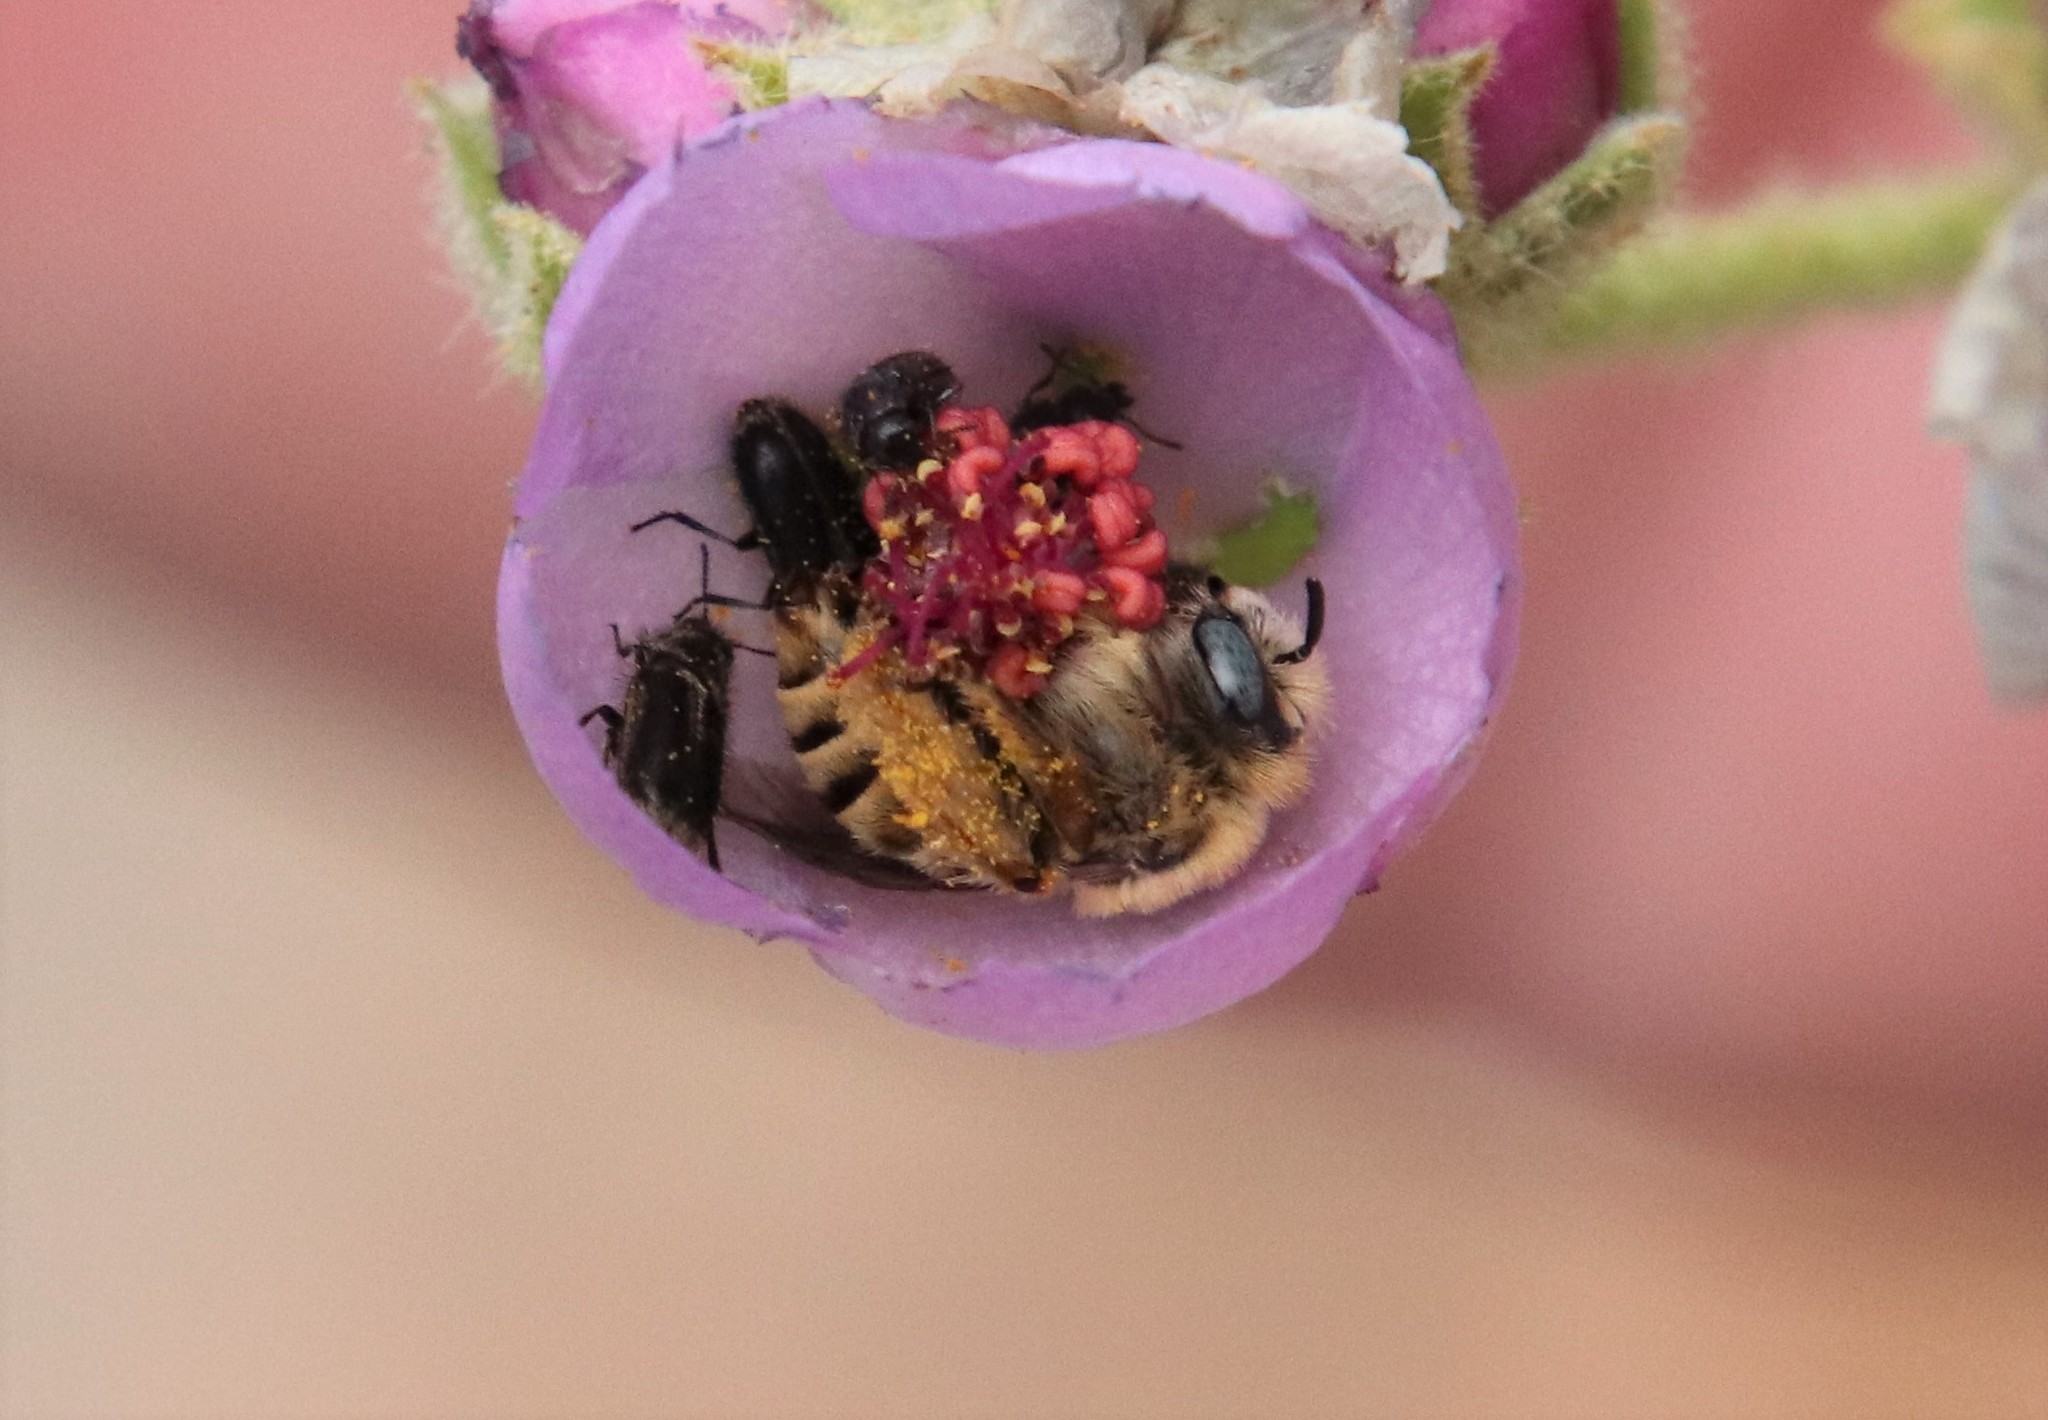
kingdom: Animalia
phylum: Arthropoda
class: Insecta
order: Hymenoptera
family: Apidae
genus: Diadasia
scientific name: Diadasia
